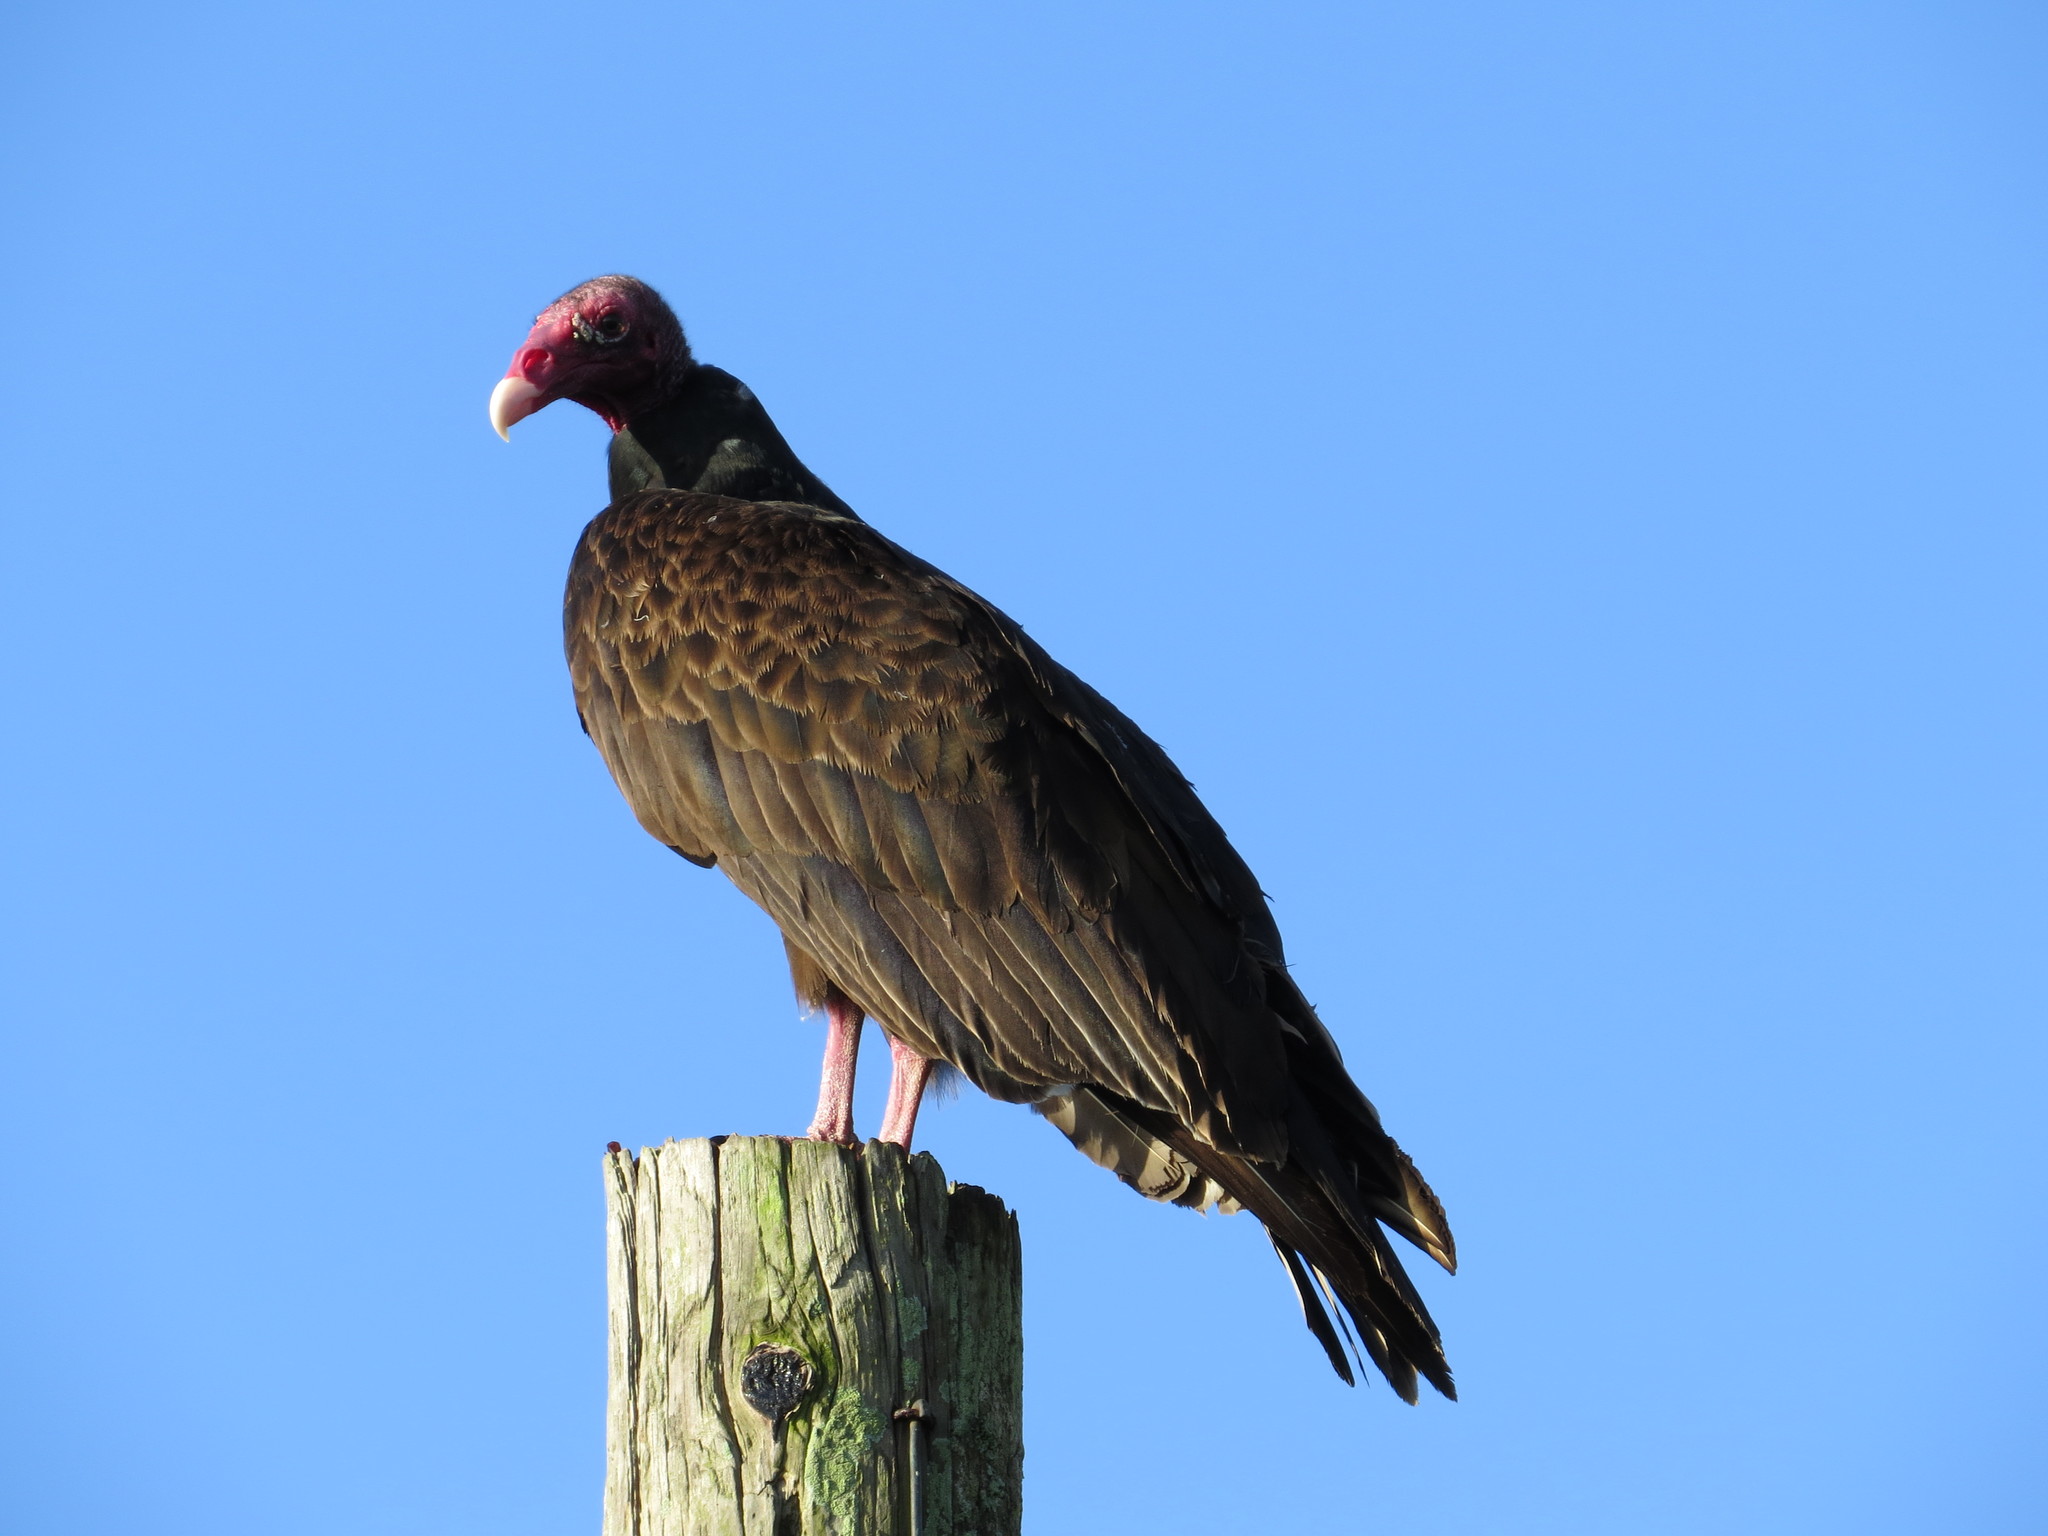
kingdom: Animalia
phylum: Chordata
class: Aves
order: Accipitriformes
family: Cathartidae
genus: Cathartes
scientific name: Cathartes aura
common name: Turkey vulture
